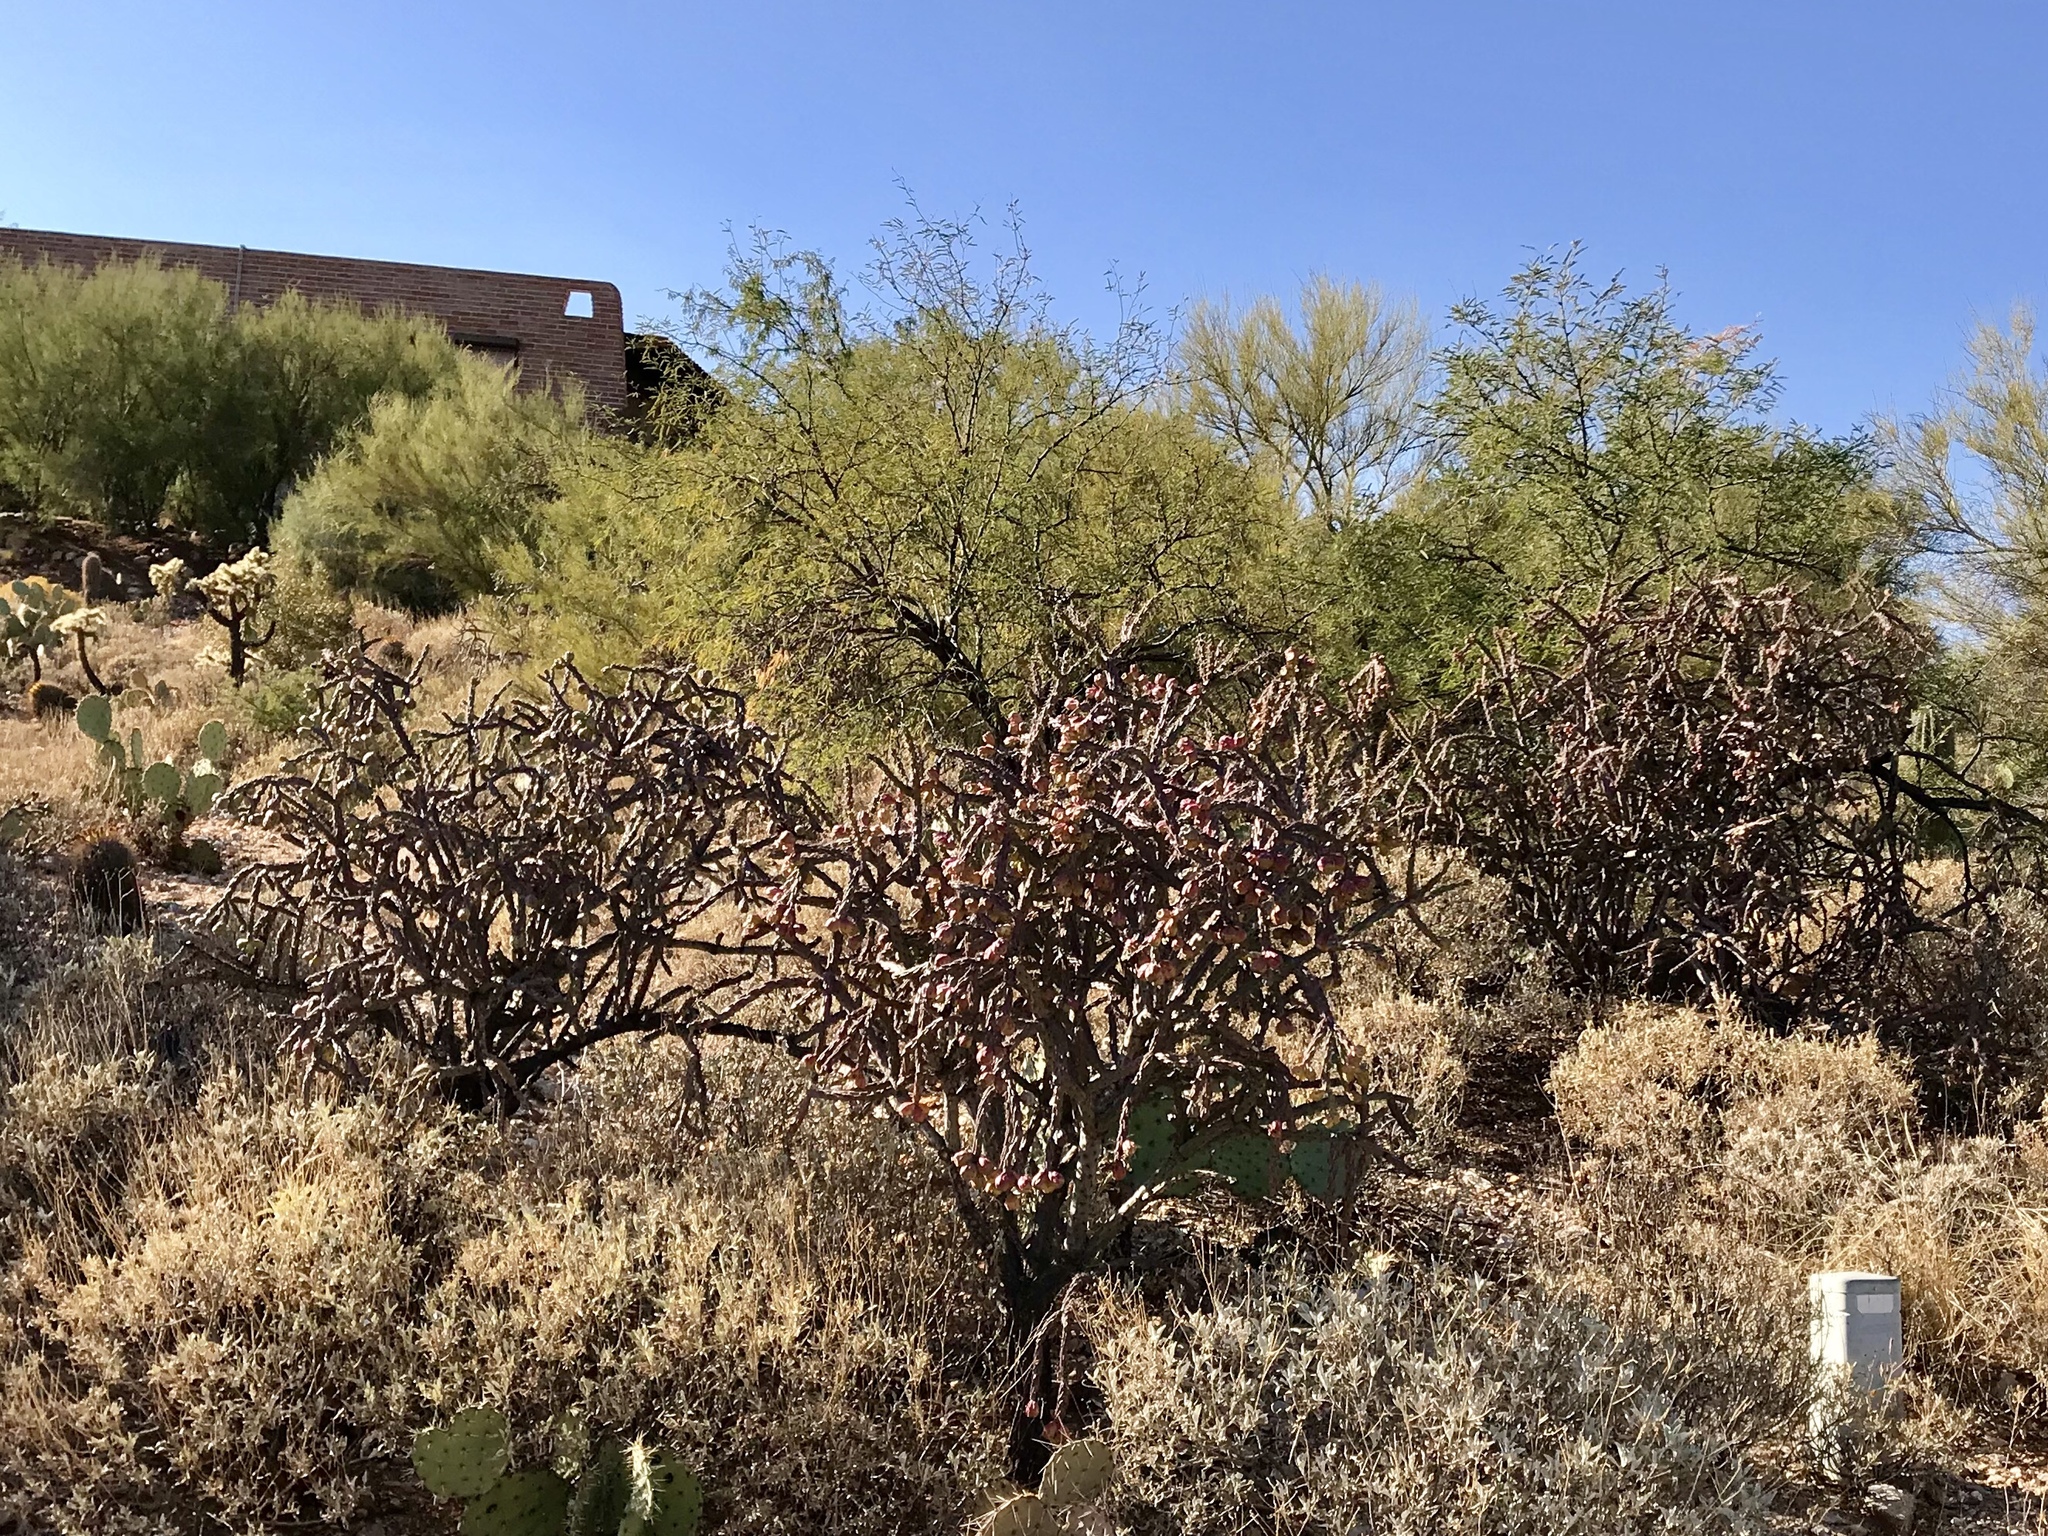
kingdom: Plantae
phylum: Tracheophyta
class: Magnoliopsida
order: Caryophyllales
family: Cactaceae
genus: Cylindropuntia
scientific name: Cylindropuntia thurberi
